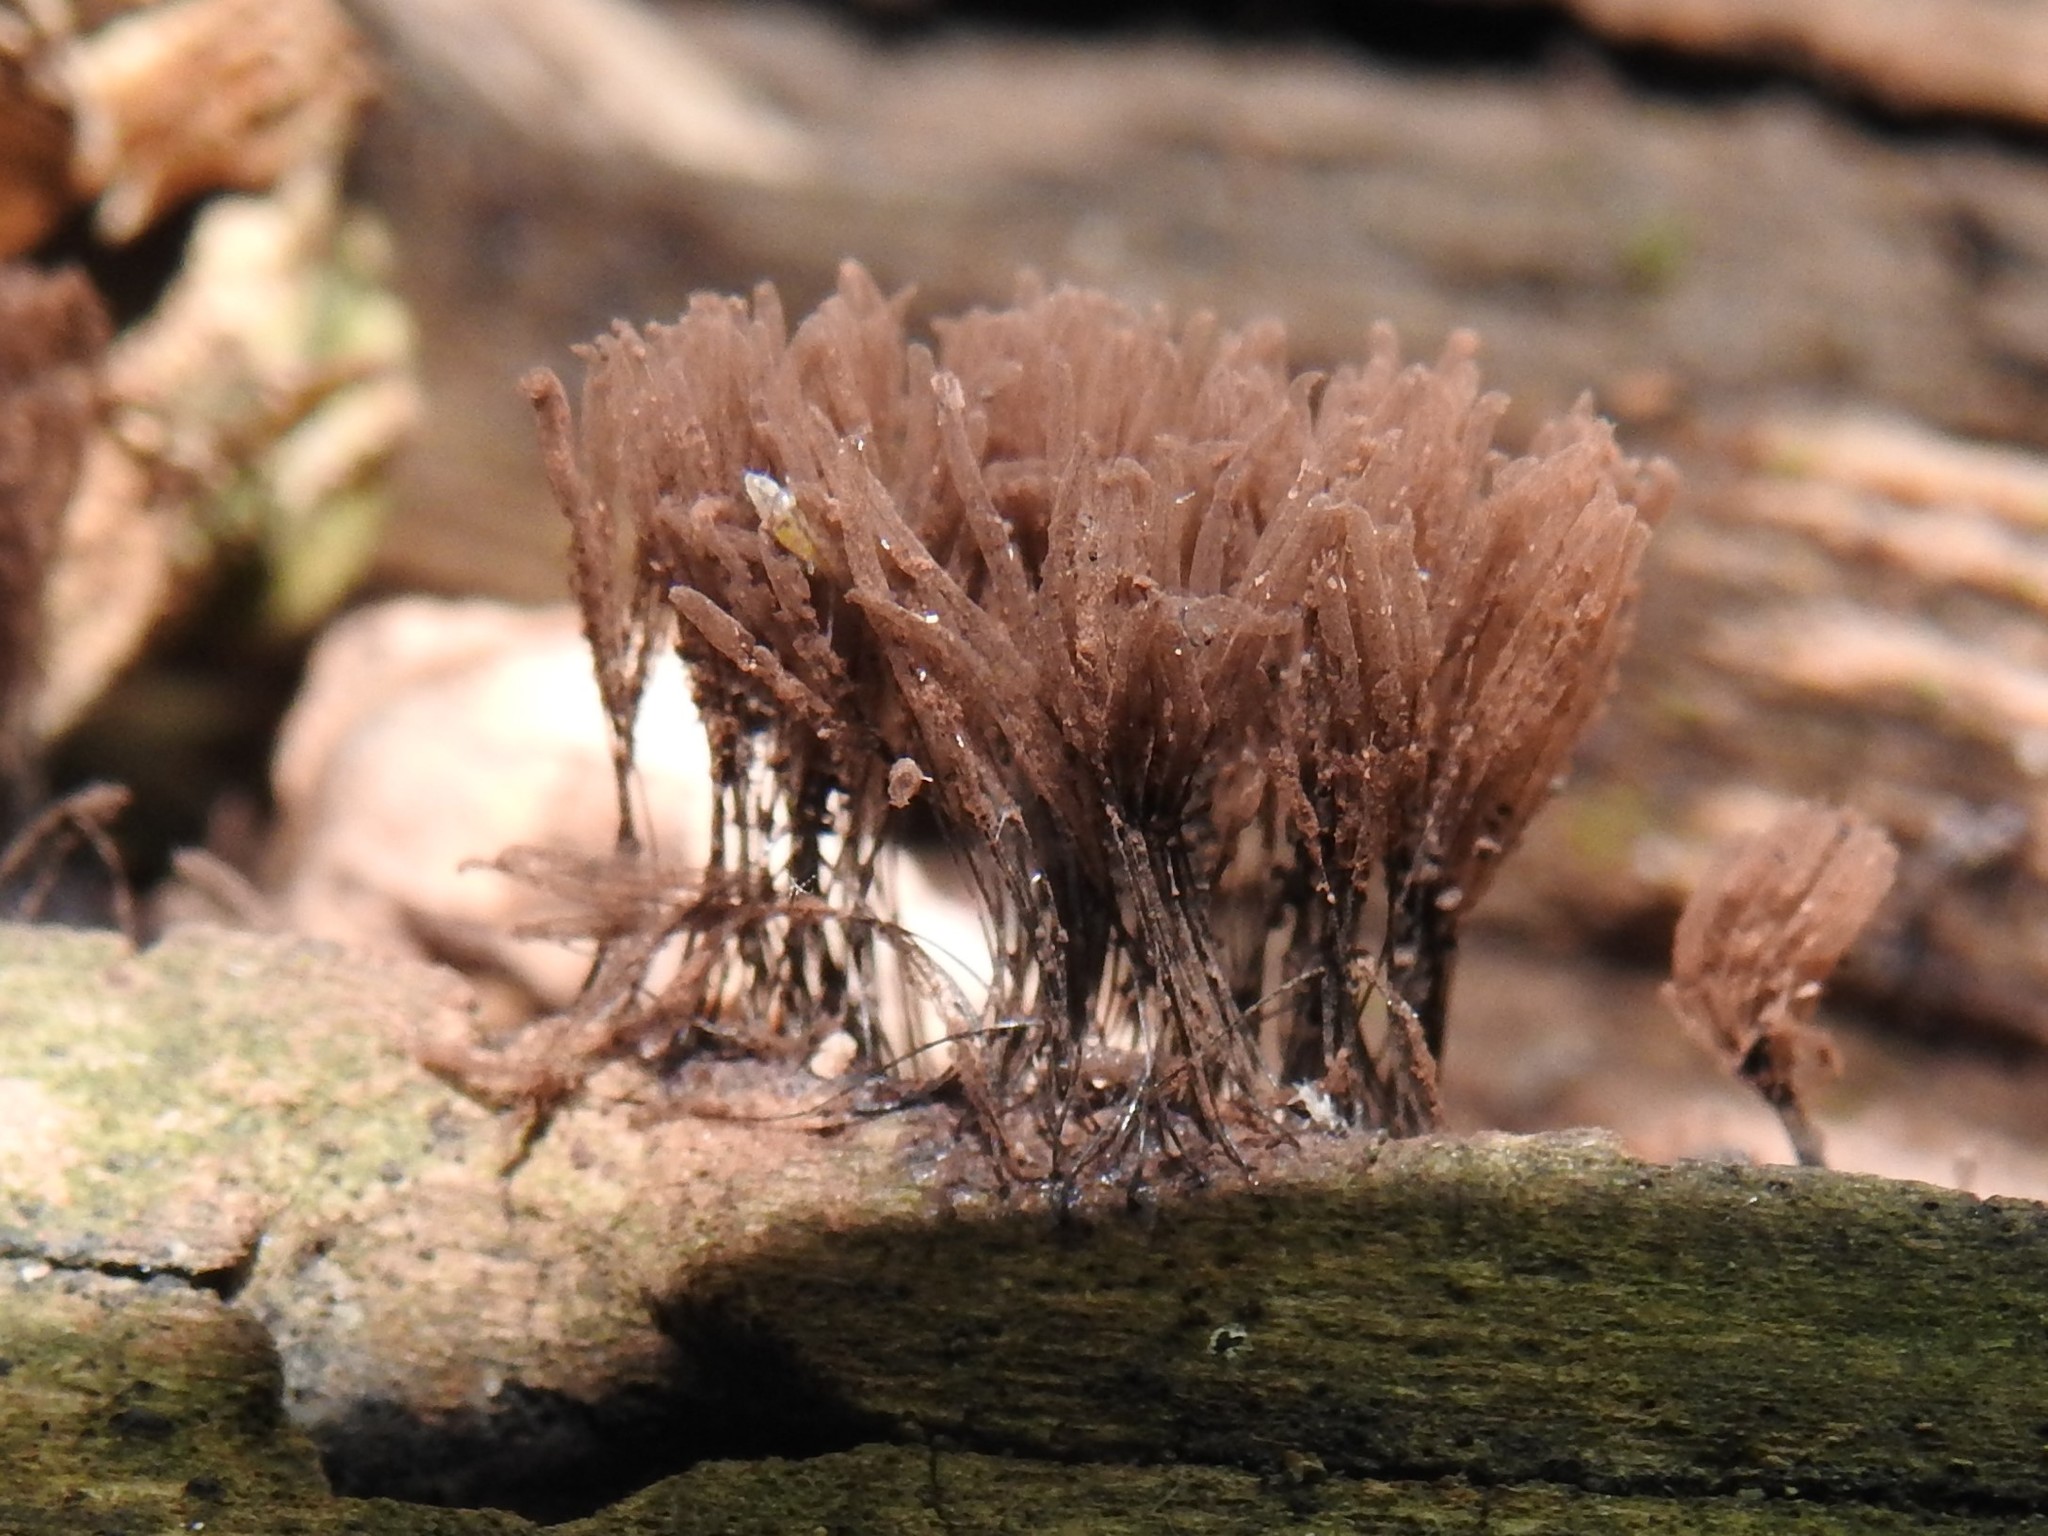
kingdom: Protozoa
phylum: Mycetozoa
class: Myxomycetes
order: Stemonitidales
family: Stemonitidaceae
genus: Stemonitis
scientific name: Stemonitis splendens
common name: Chocolate tube slime
